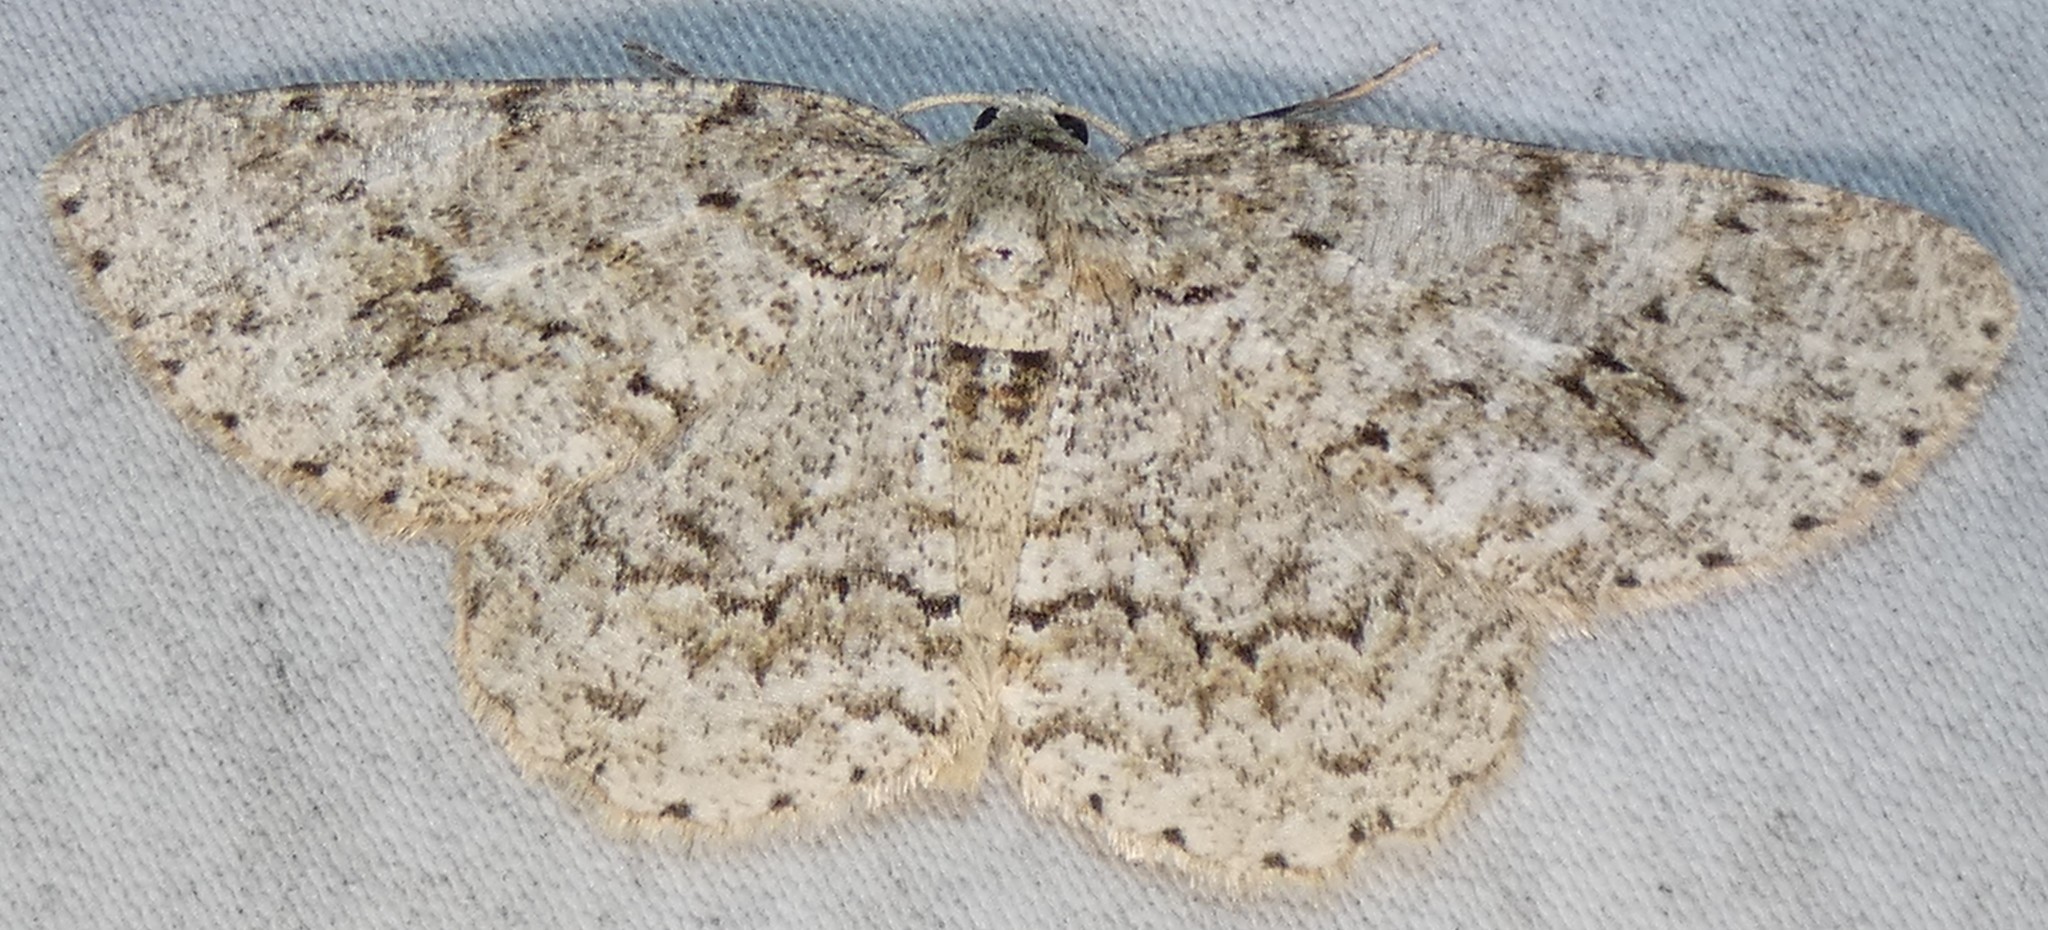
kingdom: Animalia
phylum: Arthropoda
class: Insecta
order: Lepidoptera
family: Geometridae
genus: Ectropis
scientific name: Ectropis crepuscularia
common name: Engrailed
